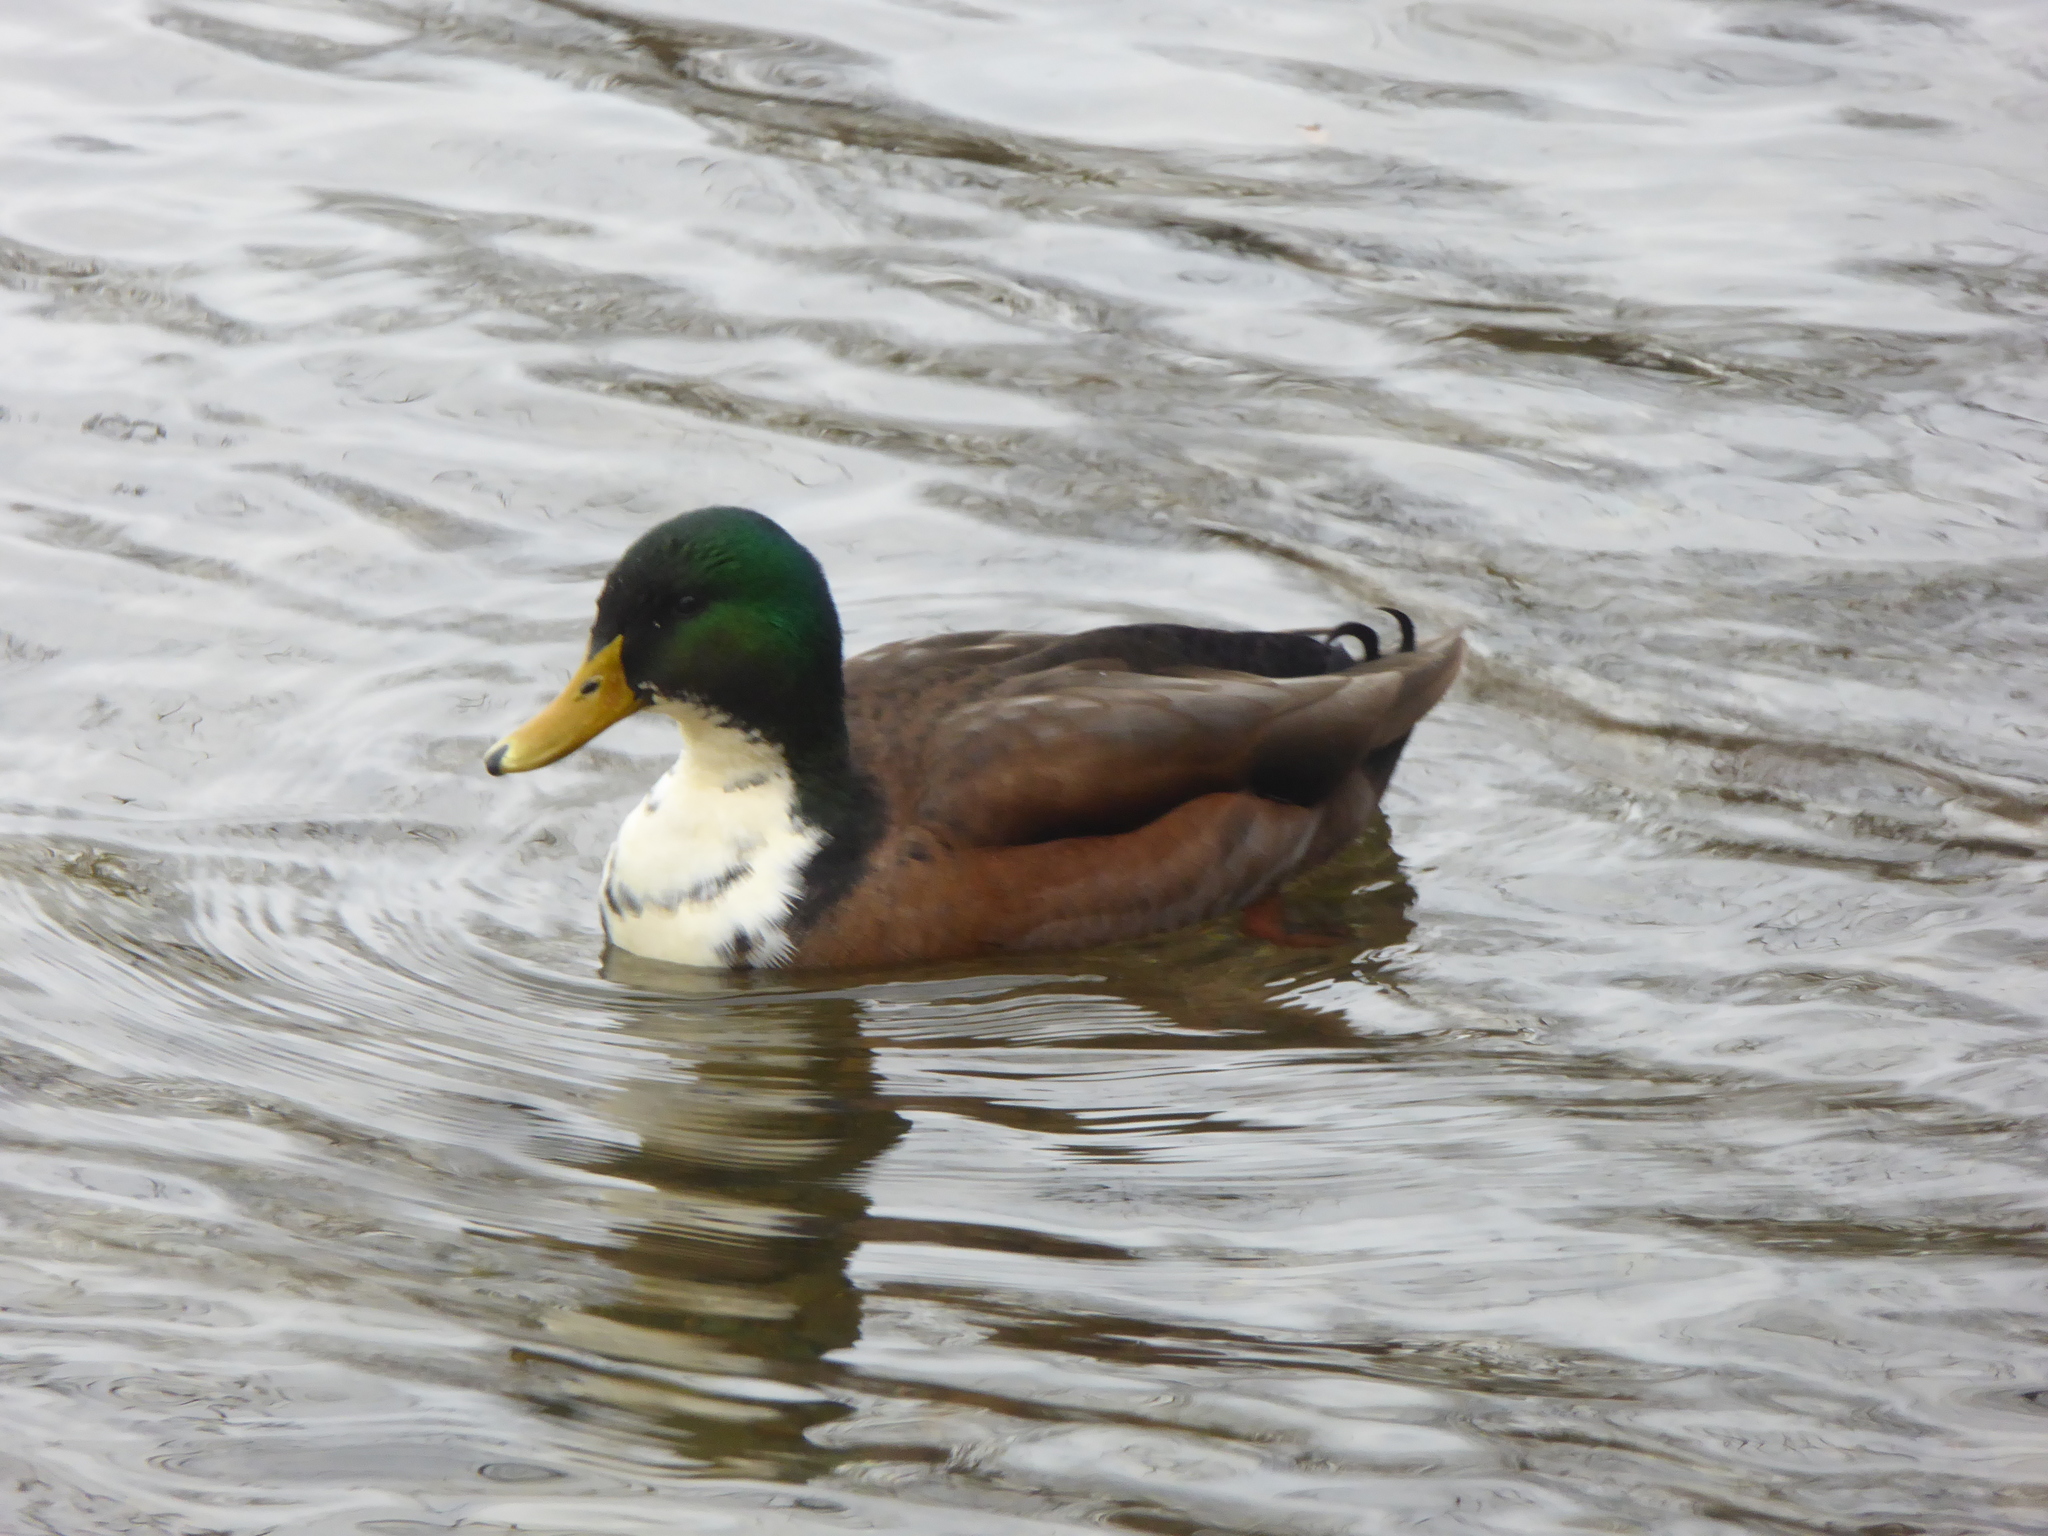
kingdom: Animalia
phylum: Chordata
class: Aves
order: Anseriformes
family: Anatidae
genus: Anas
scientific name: Anas platyrhynchos
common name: Mallard
